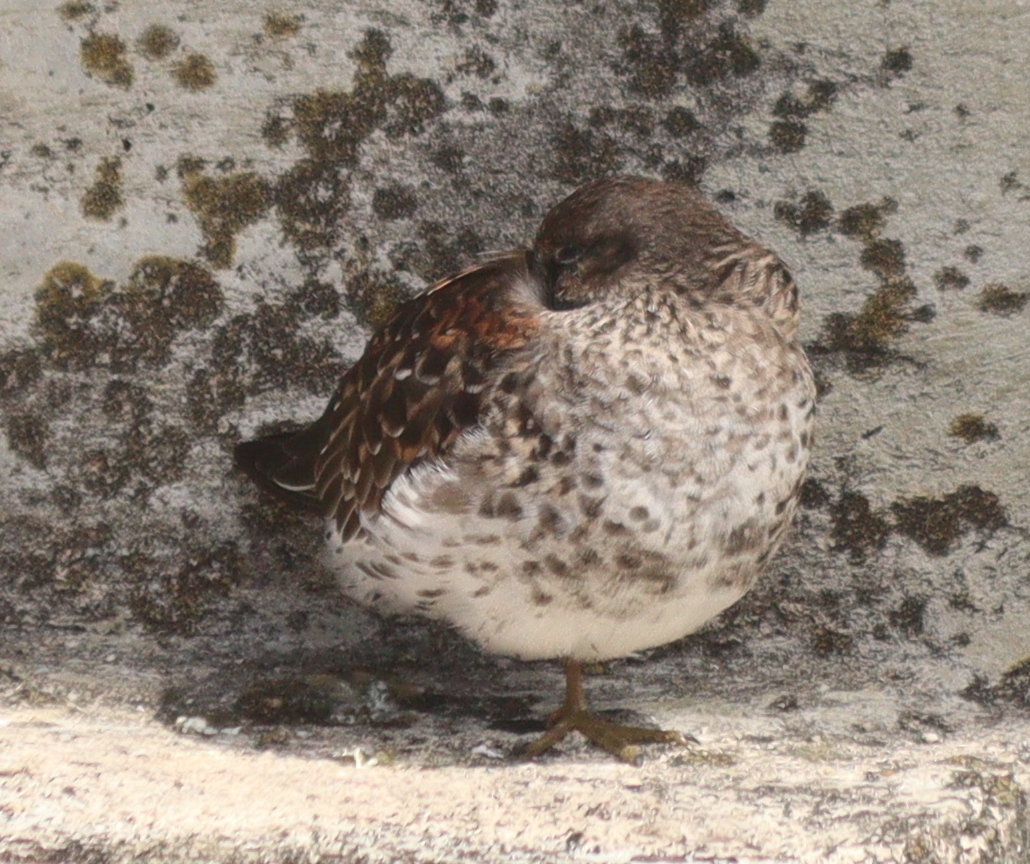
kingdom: Animalia
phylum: Chordata
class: Aves
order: Charadriiformes
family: Scolopacidae
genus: Calidris
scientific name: Calidris maritima
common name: Purple sandpiper
